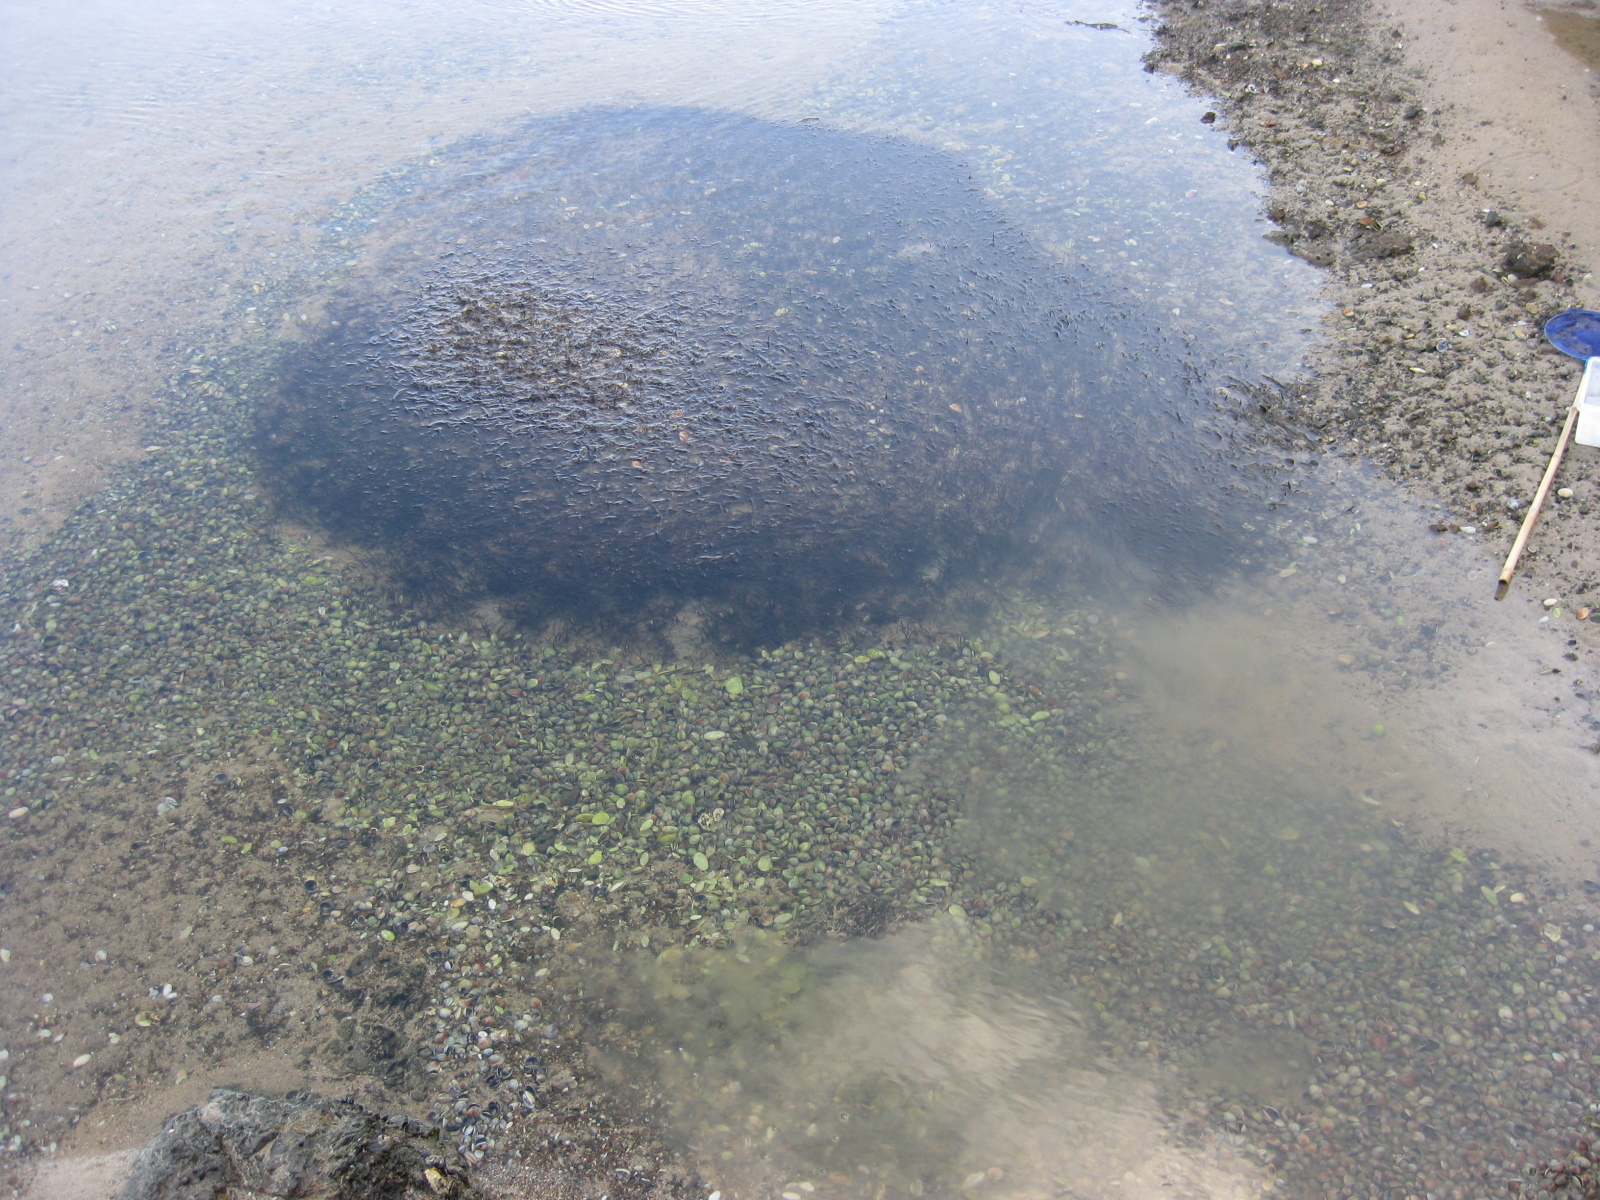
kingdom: Plantae
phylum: Tracheophyta
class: Liliopsida
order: Alismatales
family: Zosteraceae
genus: Zostera
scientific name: Zostera novazelandica
